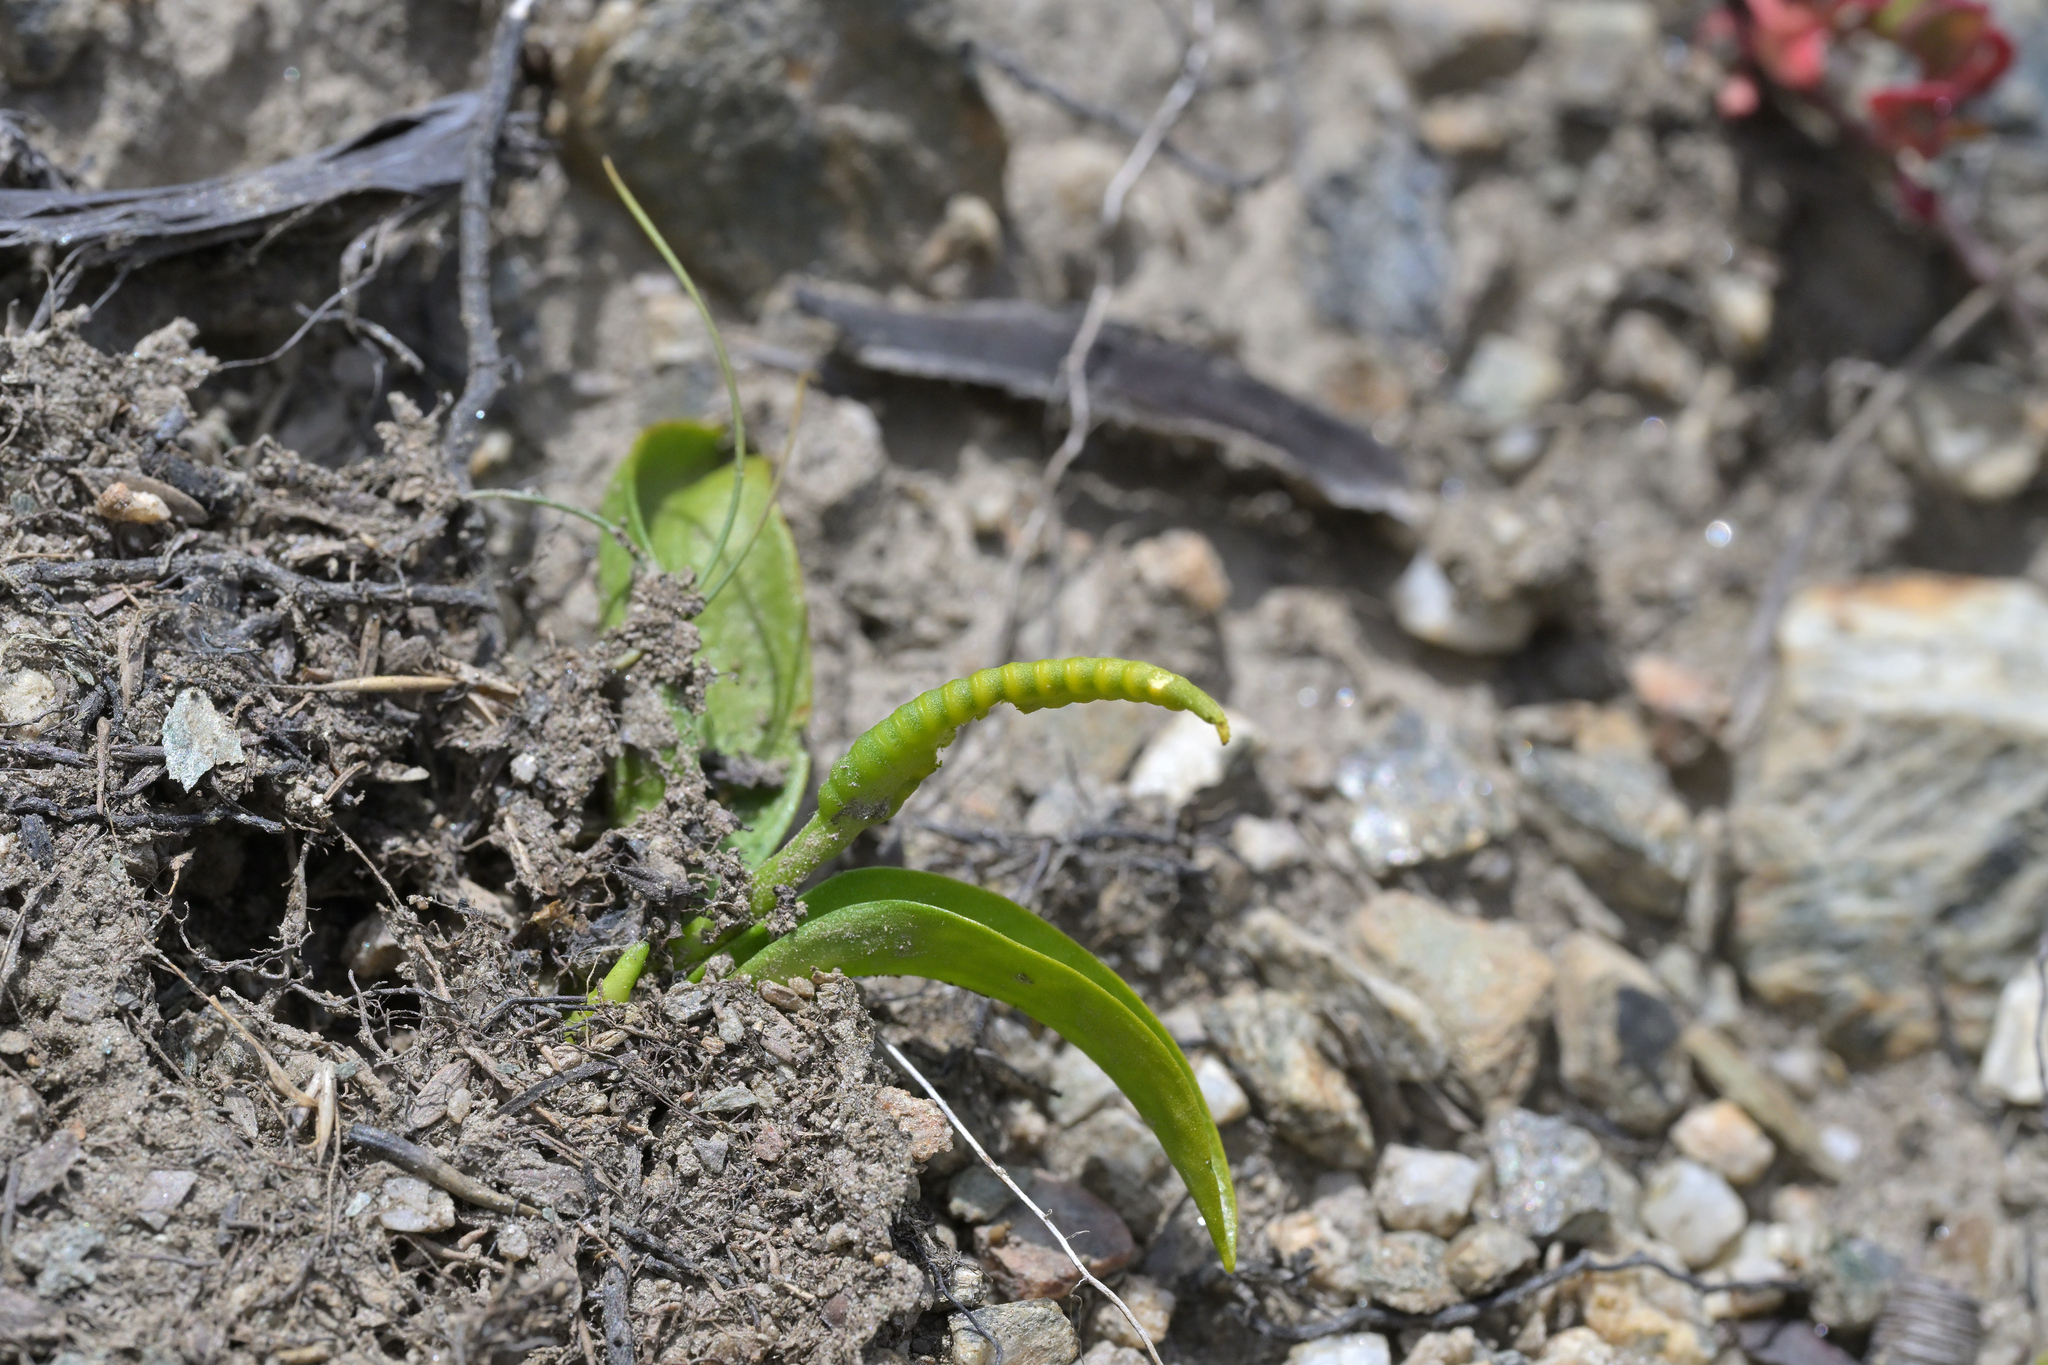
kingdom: Plantae
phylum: Tracheophyta
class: Polypodiopsida
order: Ophioglossales
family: Ophioglossaceae
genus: Ophioglossum
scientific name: Ophioglossum coriaceum
